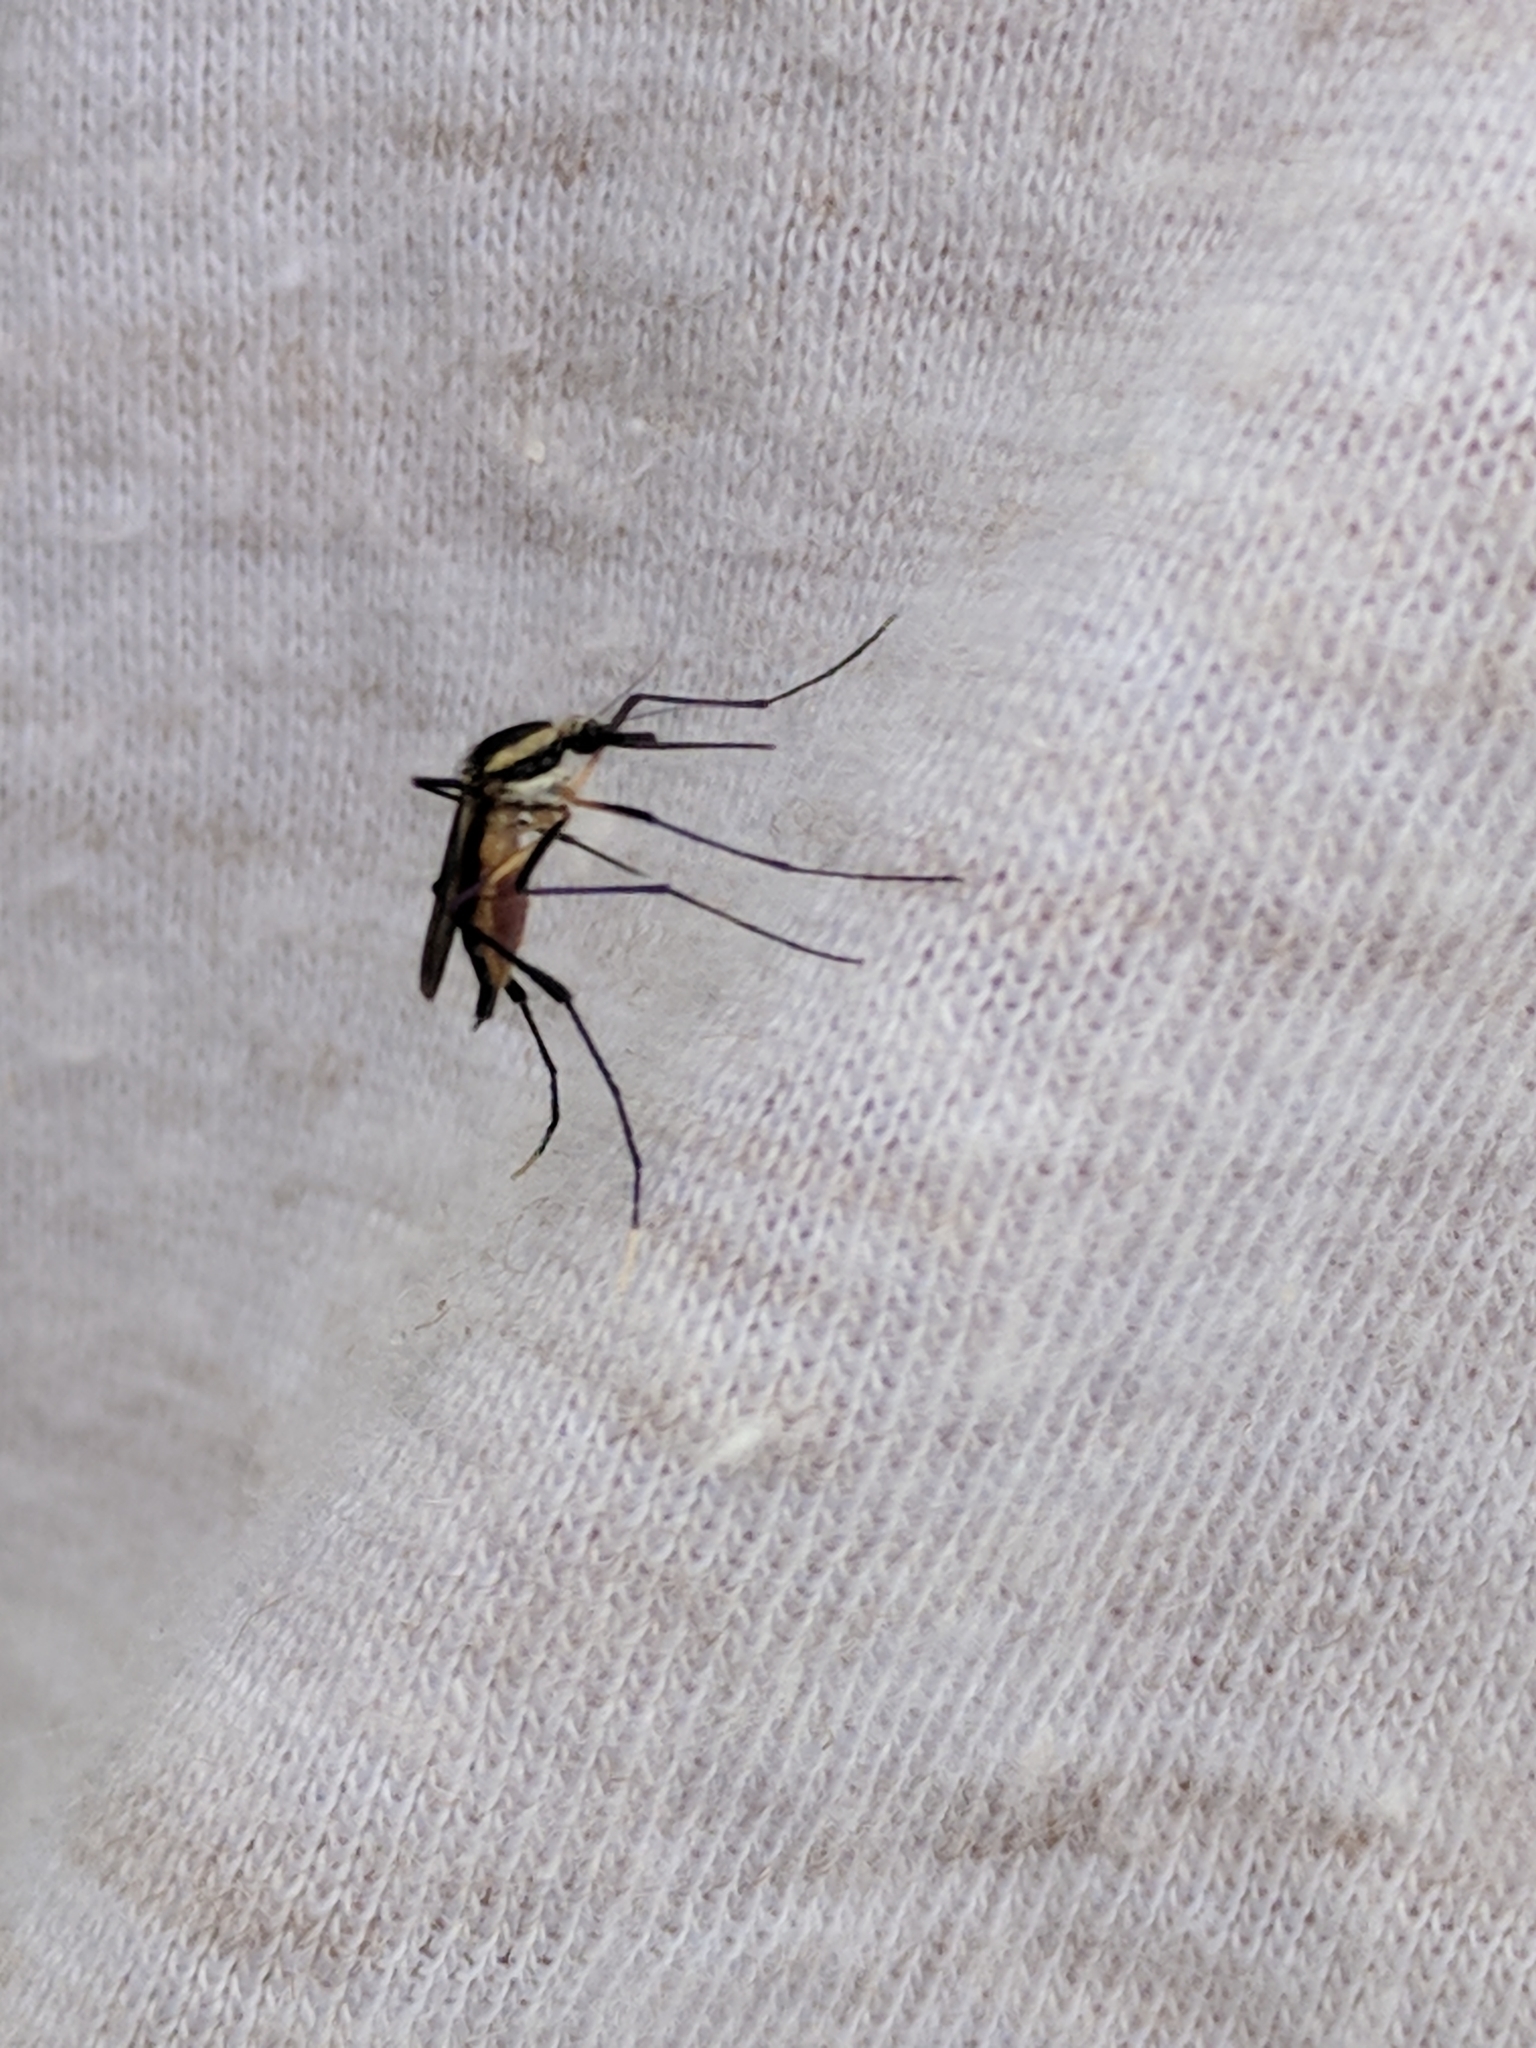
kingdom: Animalia
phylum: Arthropoda
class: Insecta
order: Diptera
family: Culicidae
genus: Psorophora
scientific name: Psorophora longipalpus
